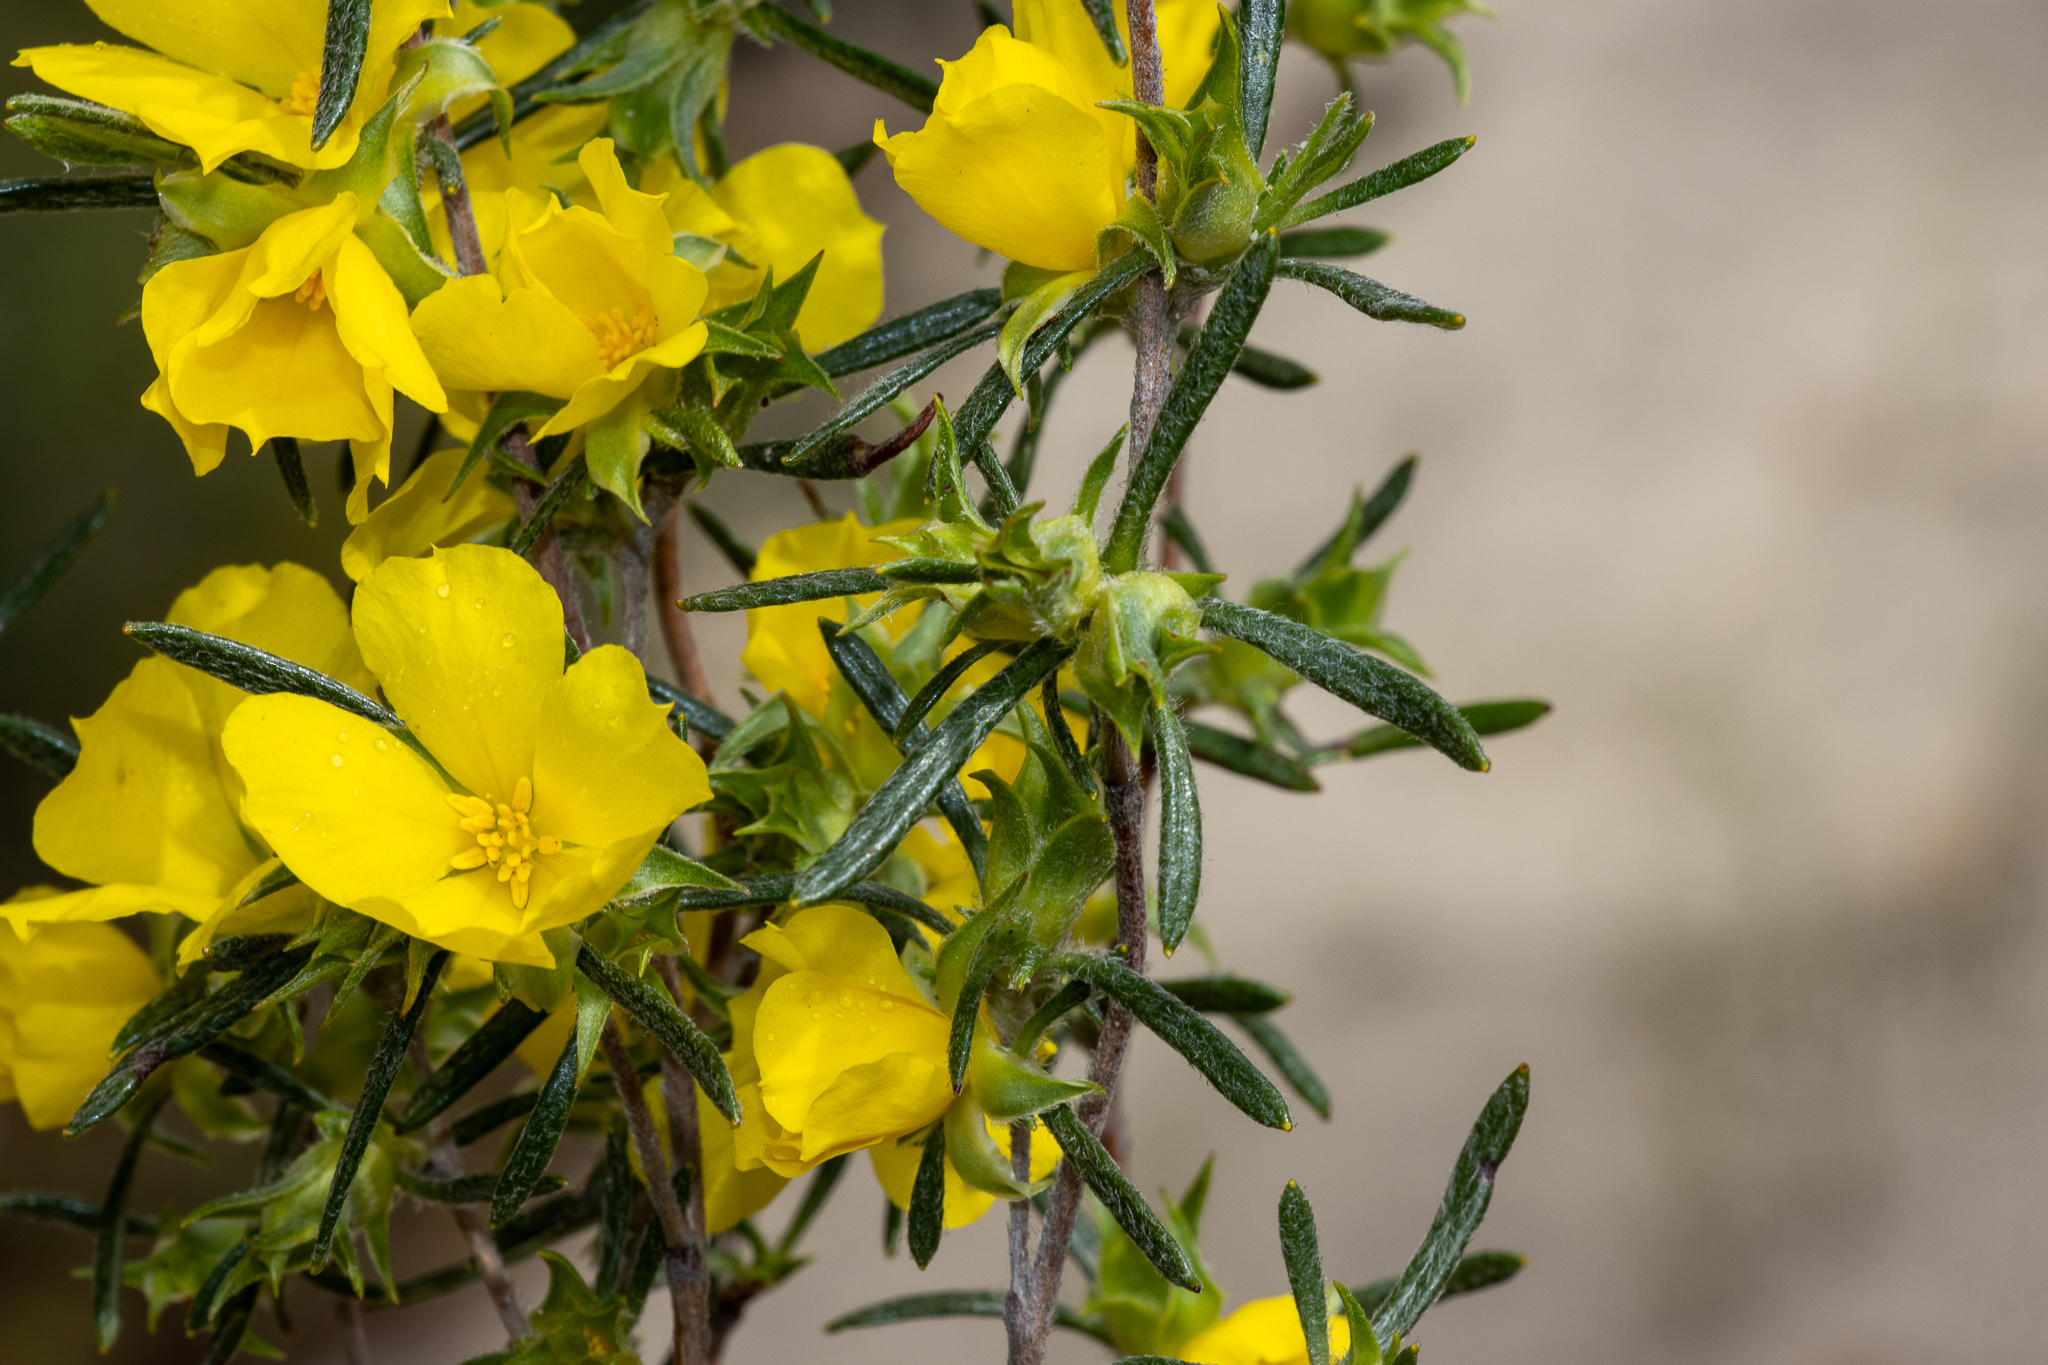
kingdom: Plantae
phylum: Tracheophyta
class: Magnoliopsida
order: Dilleniales
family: Dilleniaceae
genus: Hibbertia
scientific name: Hibbertia squarrosa
